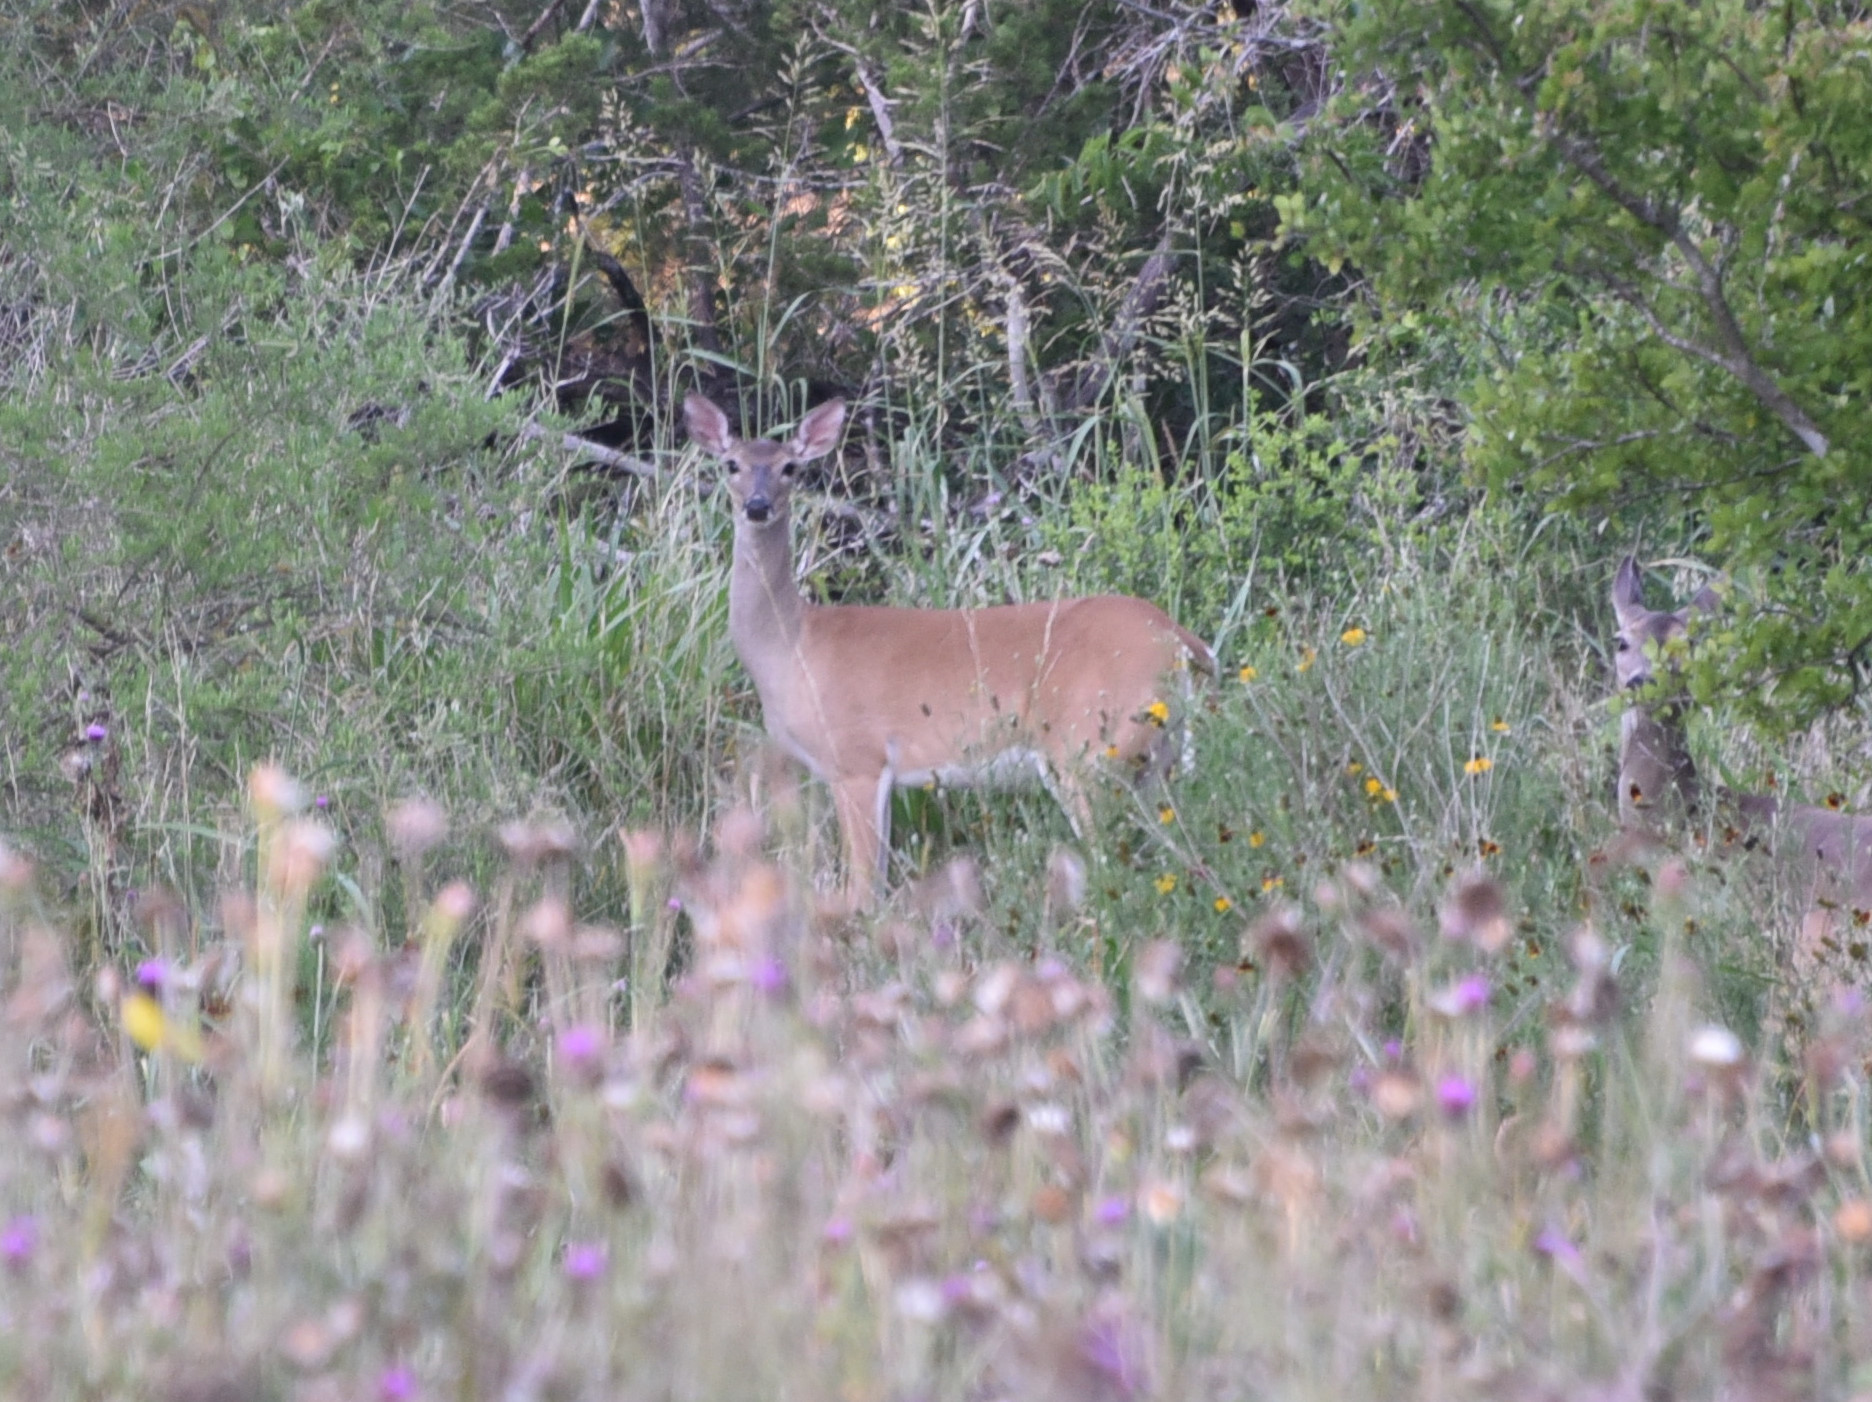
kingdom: Animalia
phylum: Chordata
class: Mammalia
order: Artiodactyla
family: Cervidae
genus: Odocoileus
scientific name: Odocoileus virginianus
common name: White-tailed deer
